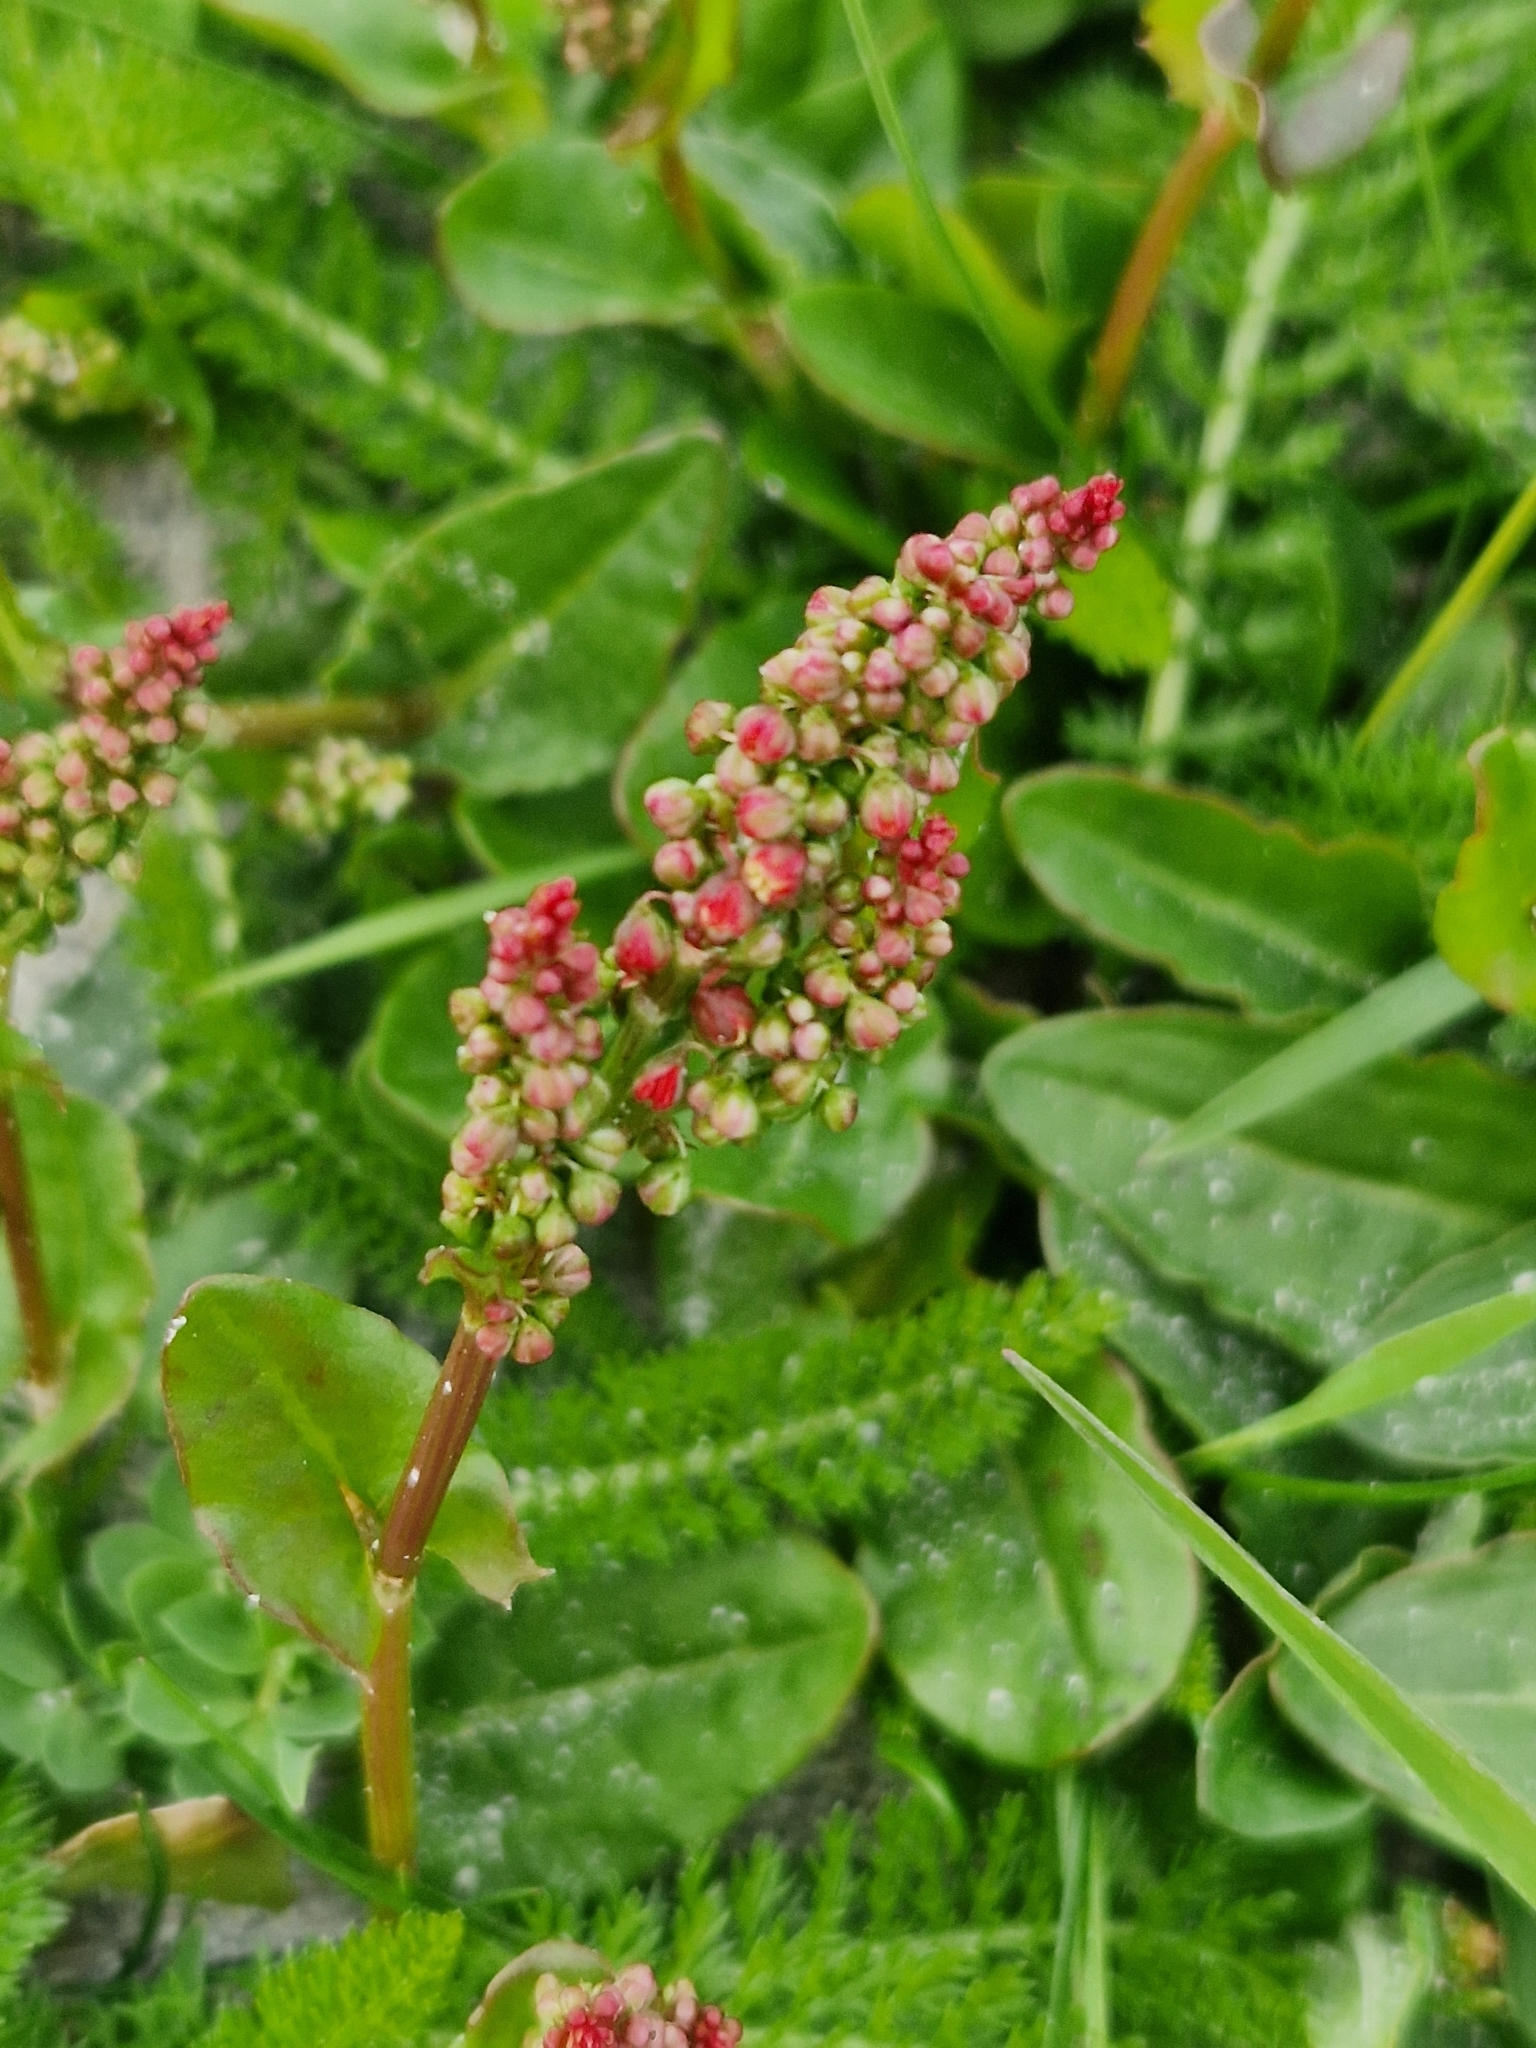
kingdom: Plantae
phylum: Tracheophyta
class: Magnoliopsida
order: Caryophyllales
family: Polygonaceae
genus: Rumex
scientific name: Rumex acetosa
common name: Garden sorrel
